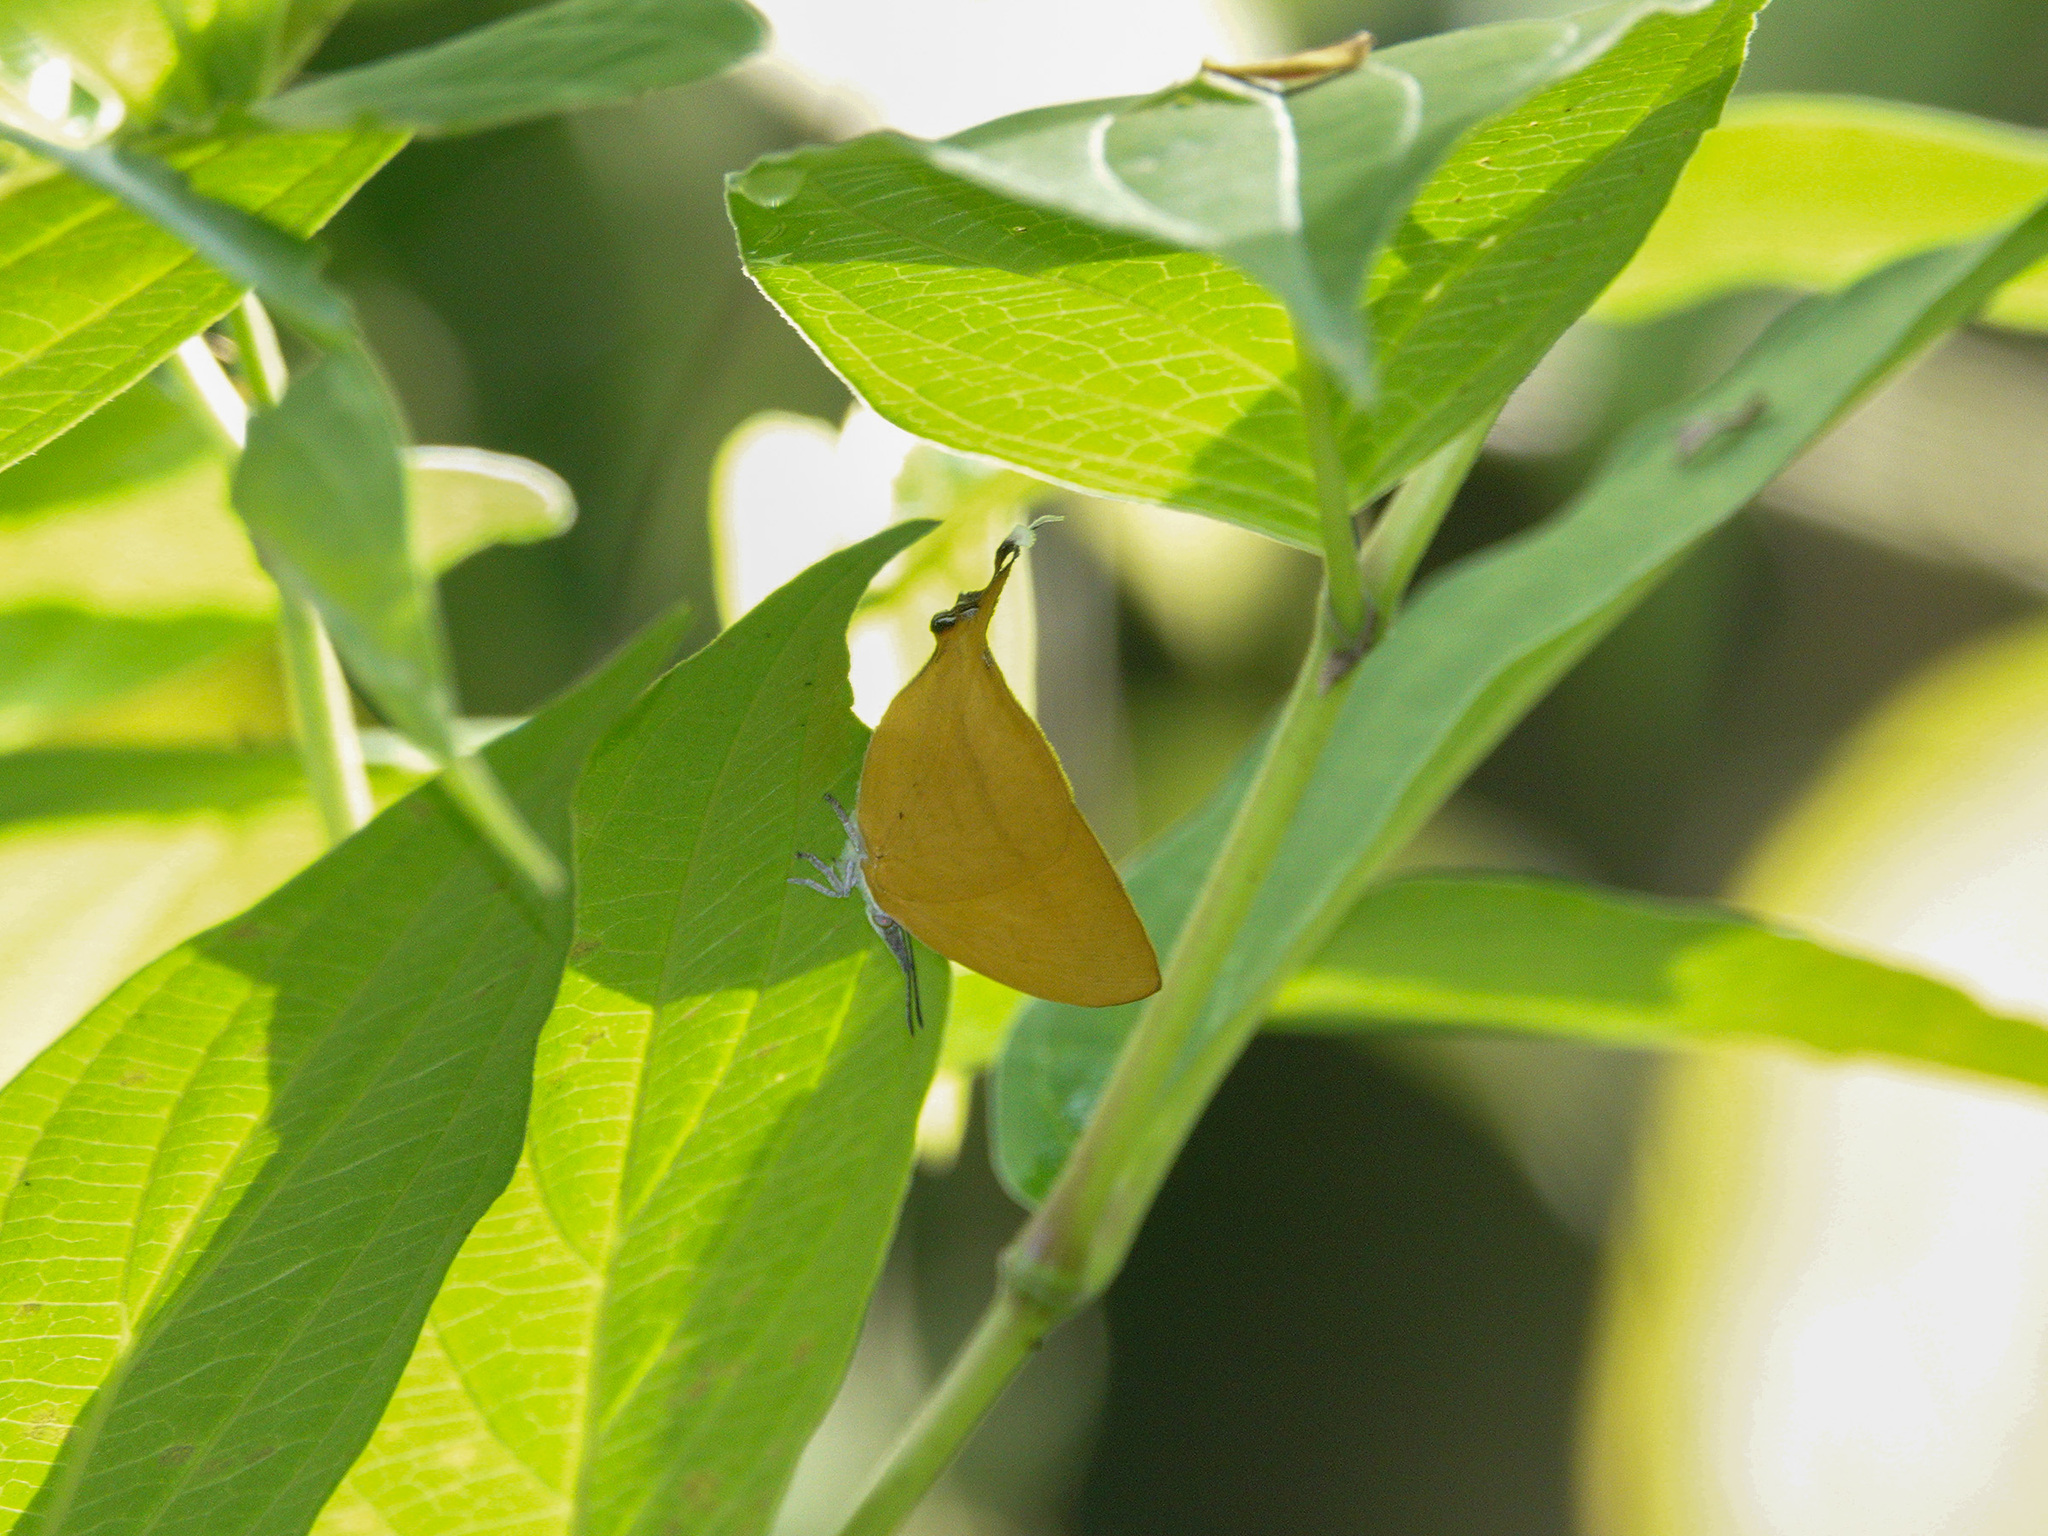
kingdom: Animalia
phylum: Arthropoda
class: Insecta
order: Lepidoptera
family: Lycaenidae
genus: Loxura
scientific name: Loxura atymnus
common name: Common yamfly
